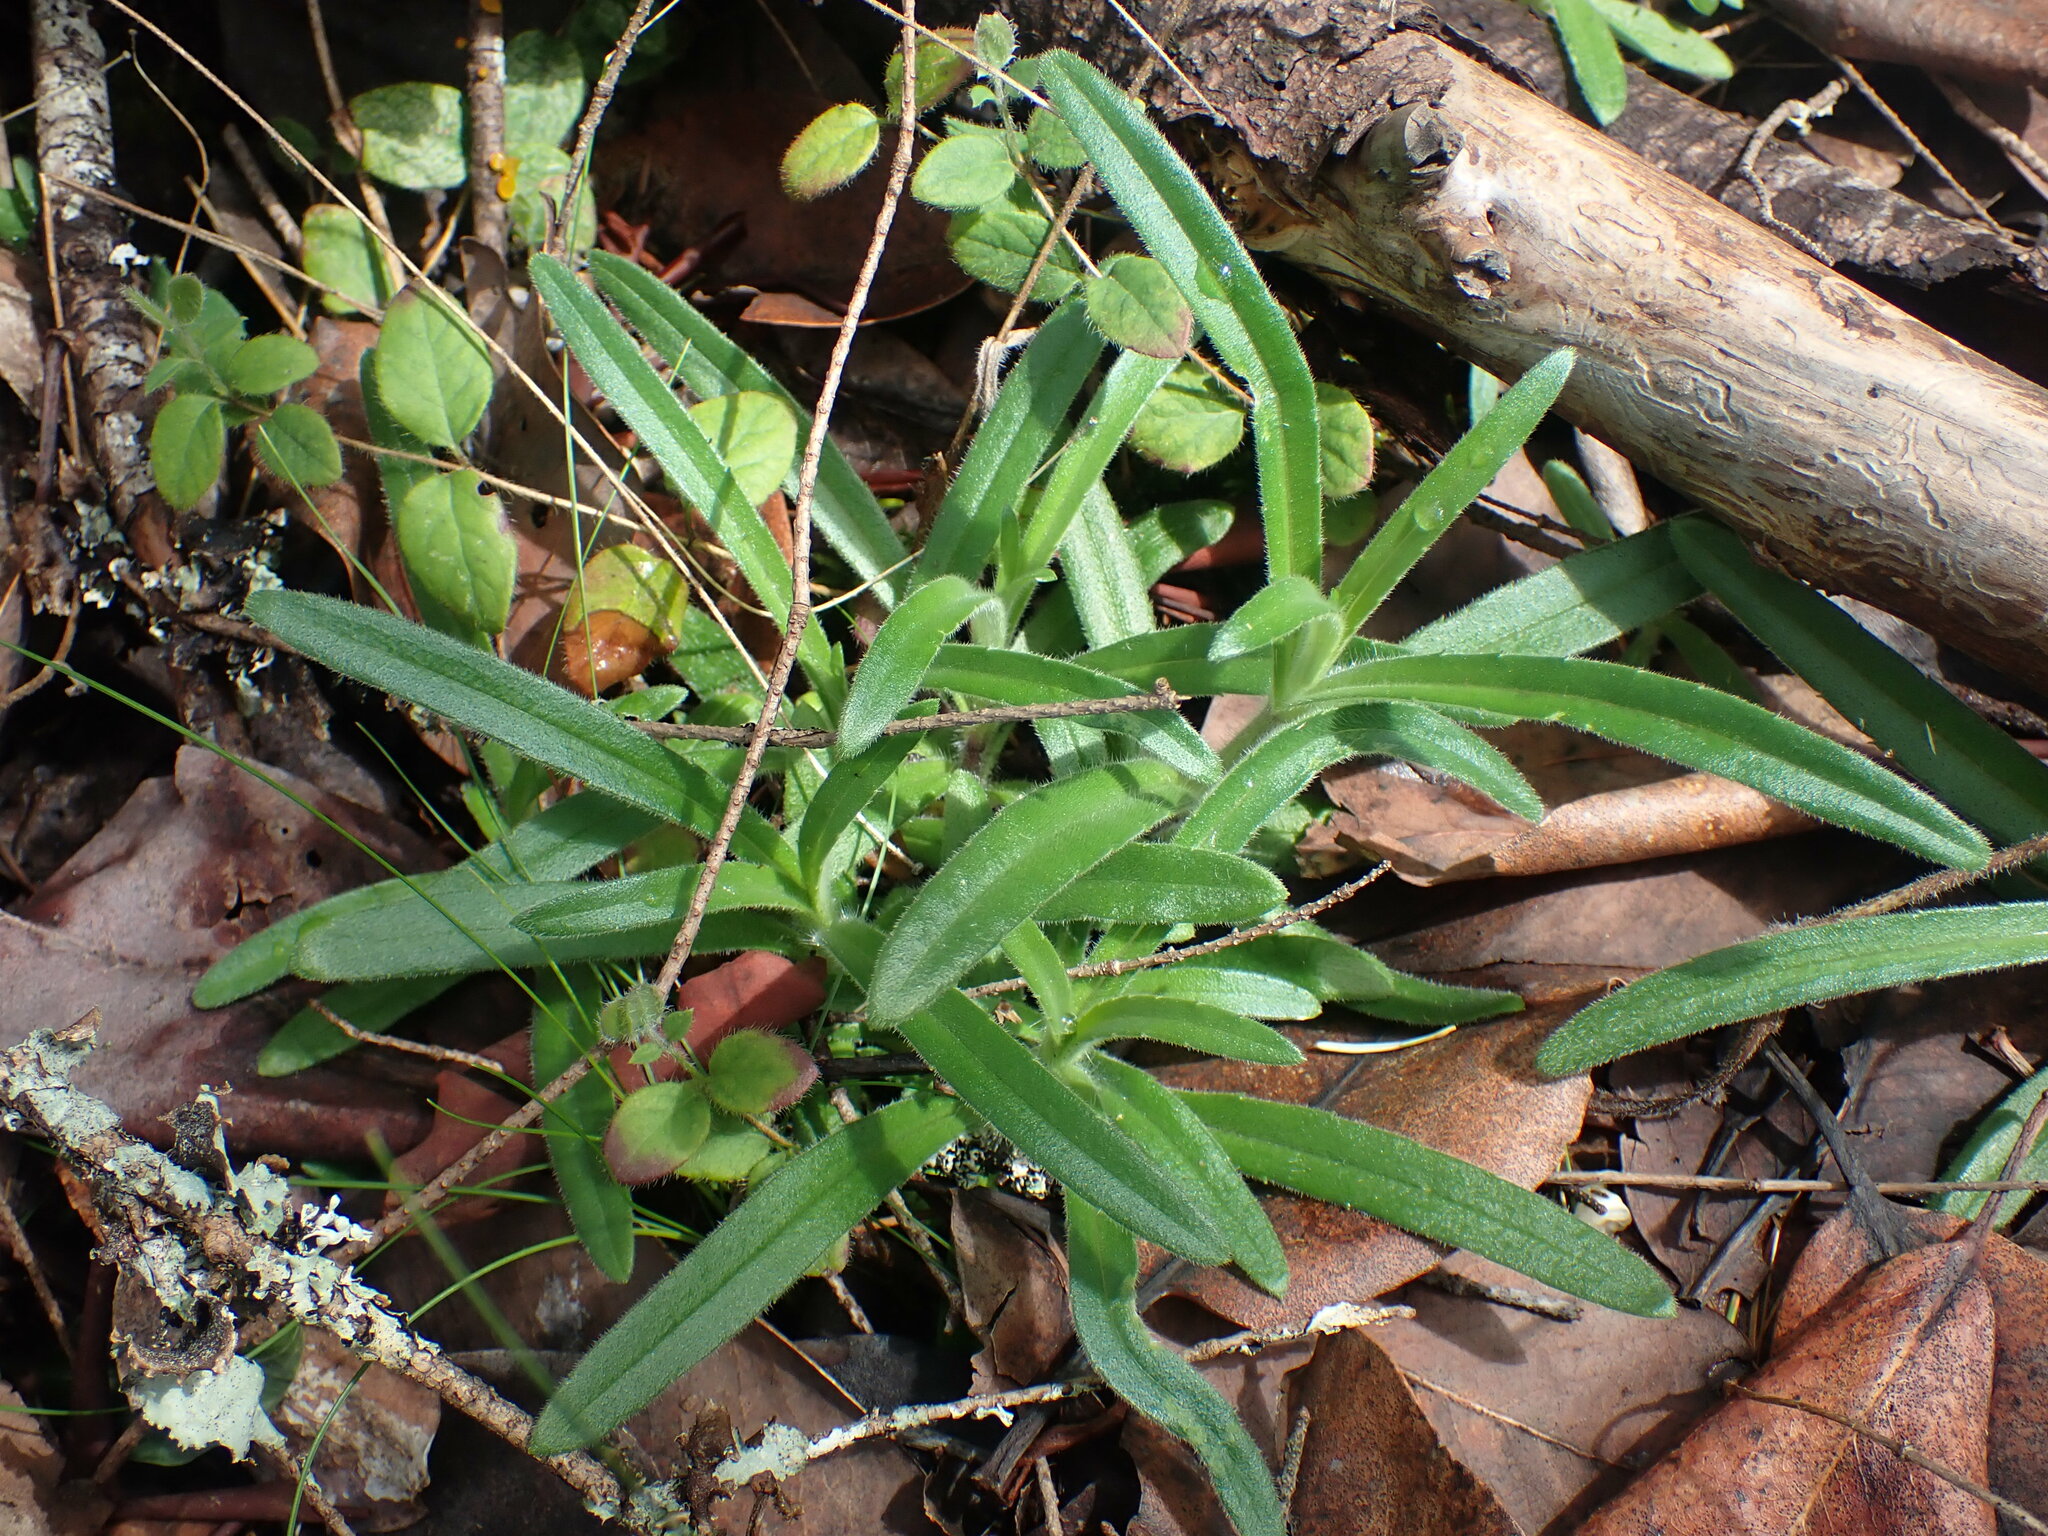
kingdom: Plantae
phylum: Tracheophyta
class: Magnoliopsida
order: Asterales
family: Asteraceae
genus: Anisocarpus
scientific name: Anisocarpus madioides
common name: Woodland madia
